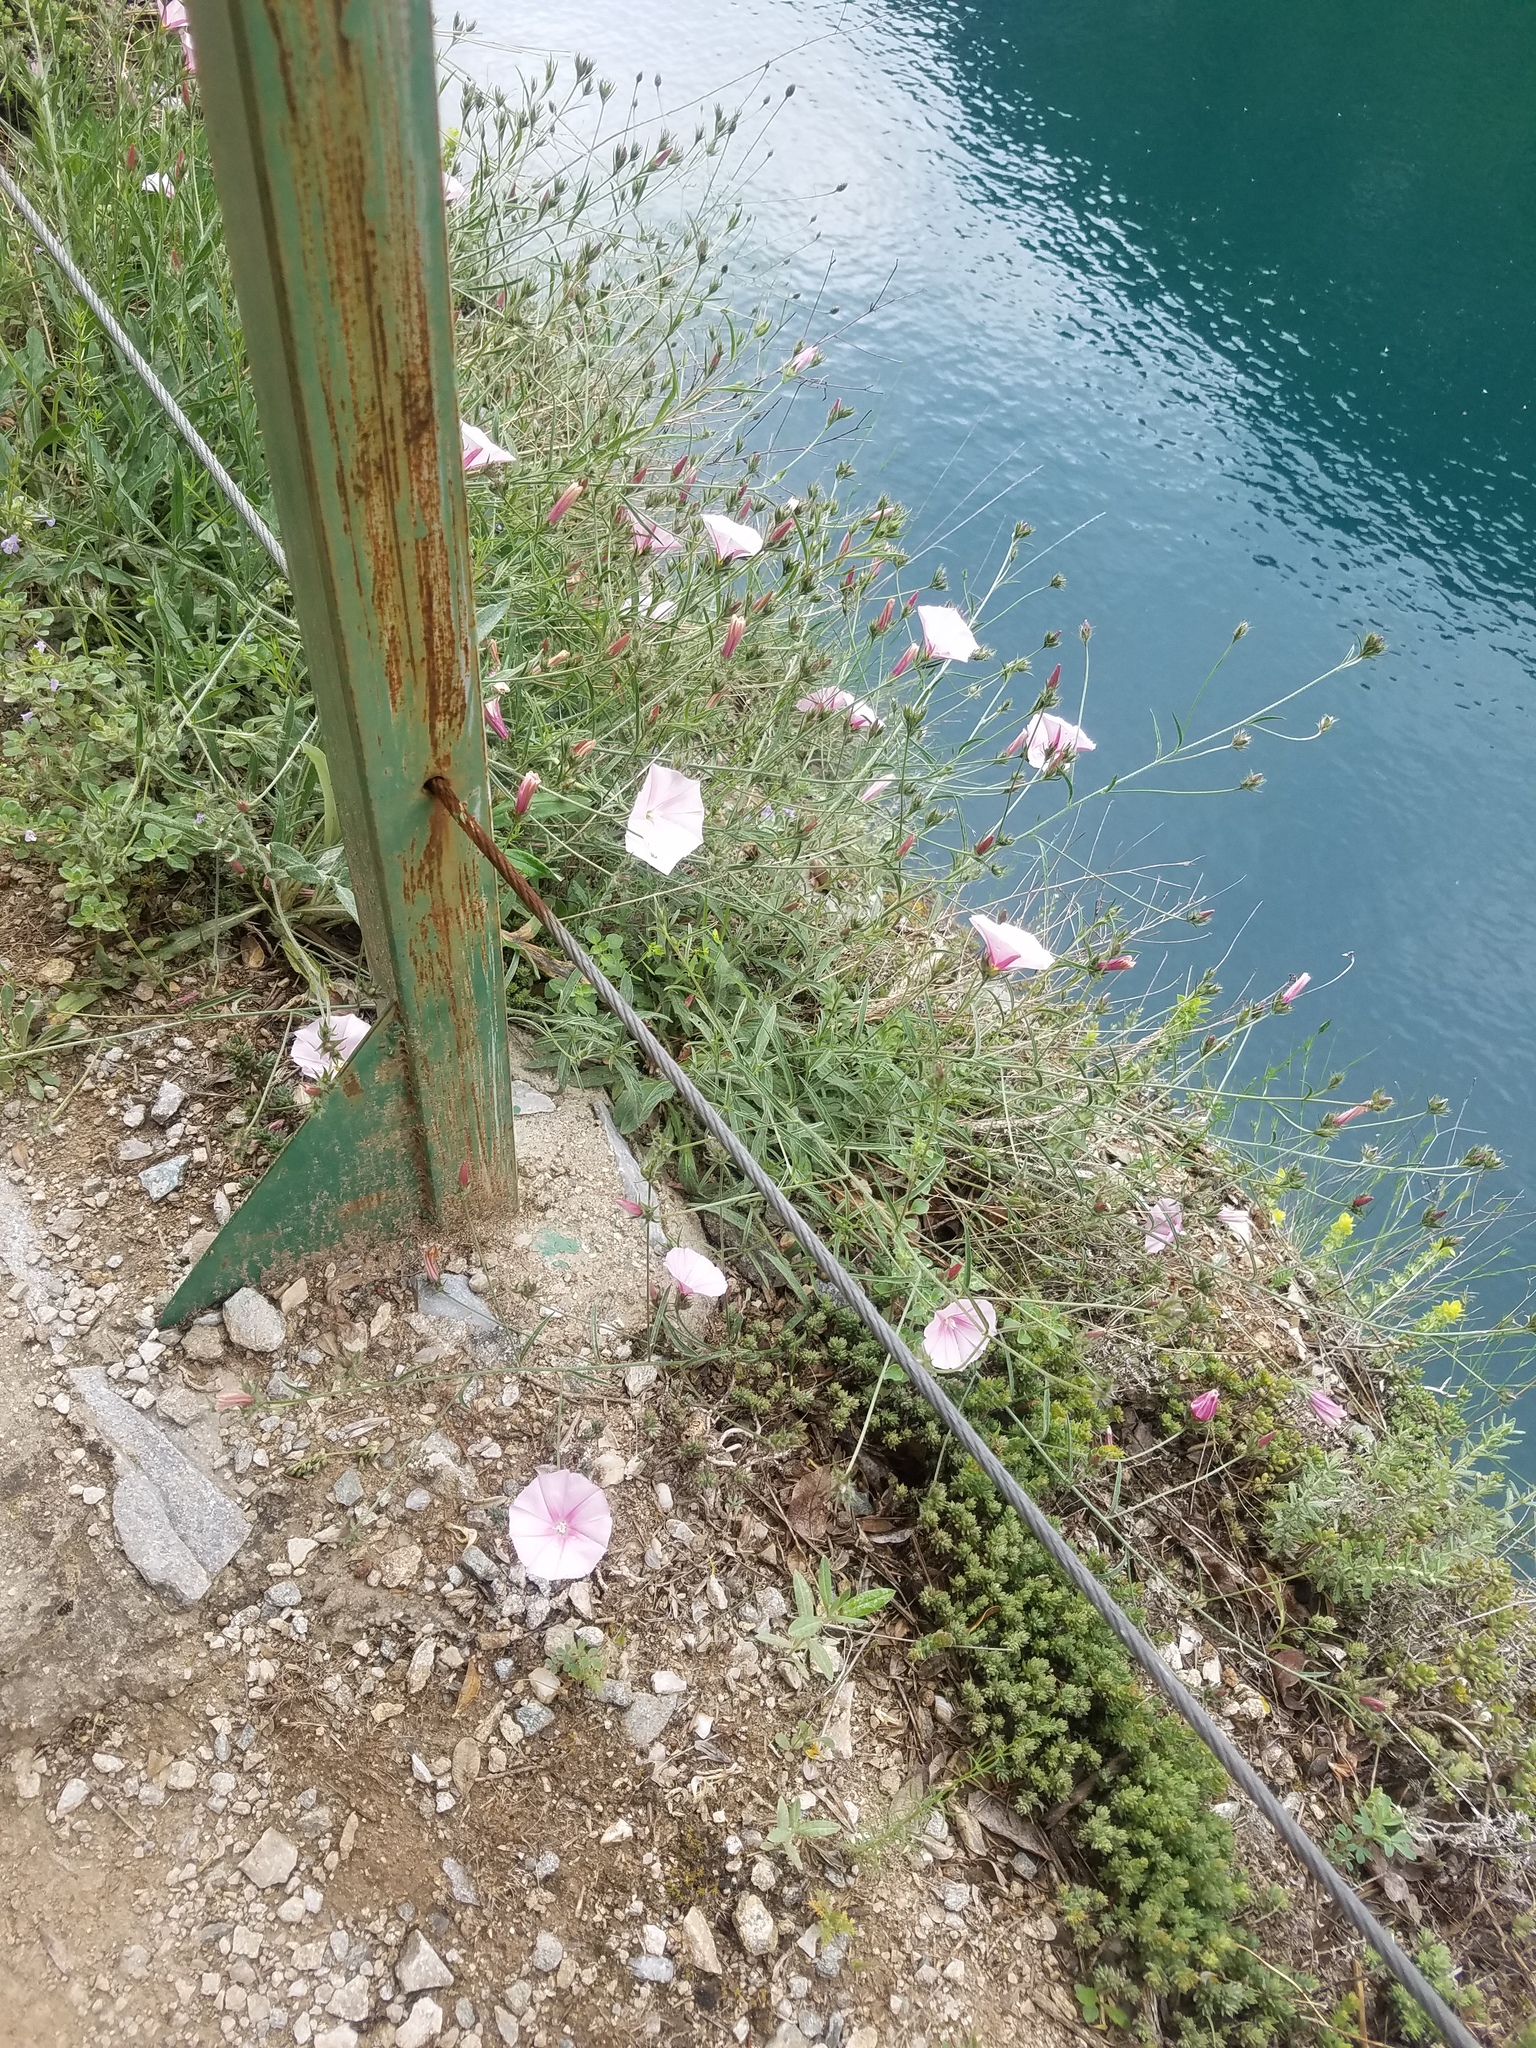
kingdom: Plantae
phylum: Tracheophyta
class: Magnoliopsida
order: Solanales
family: Convolvulaceae
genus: Convolvulus
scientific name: Convolvulus cantabrica
